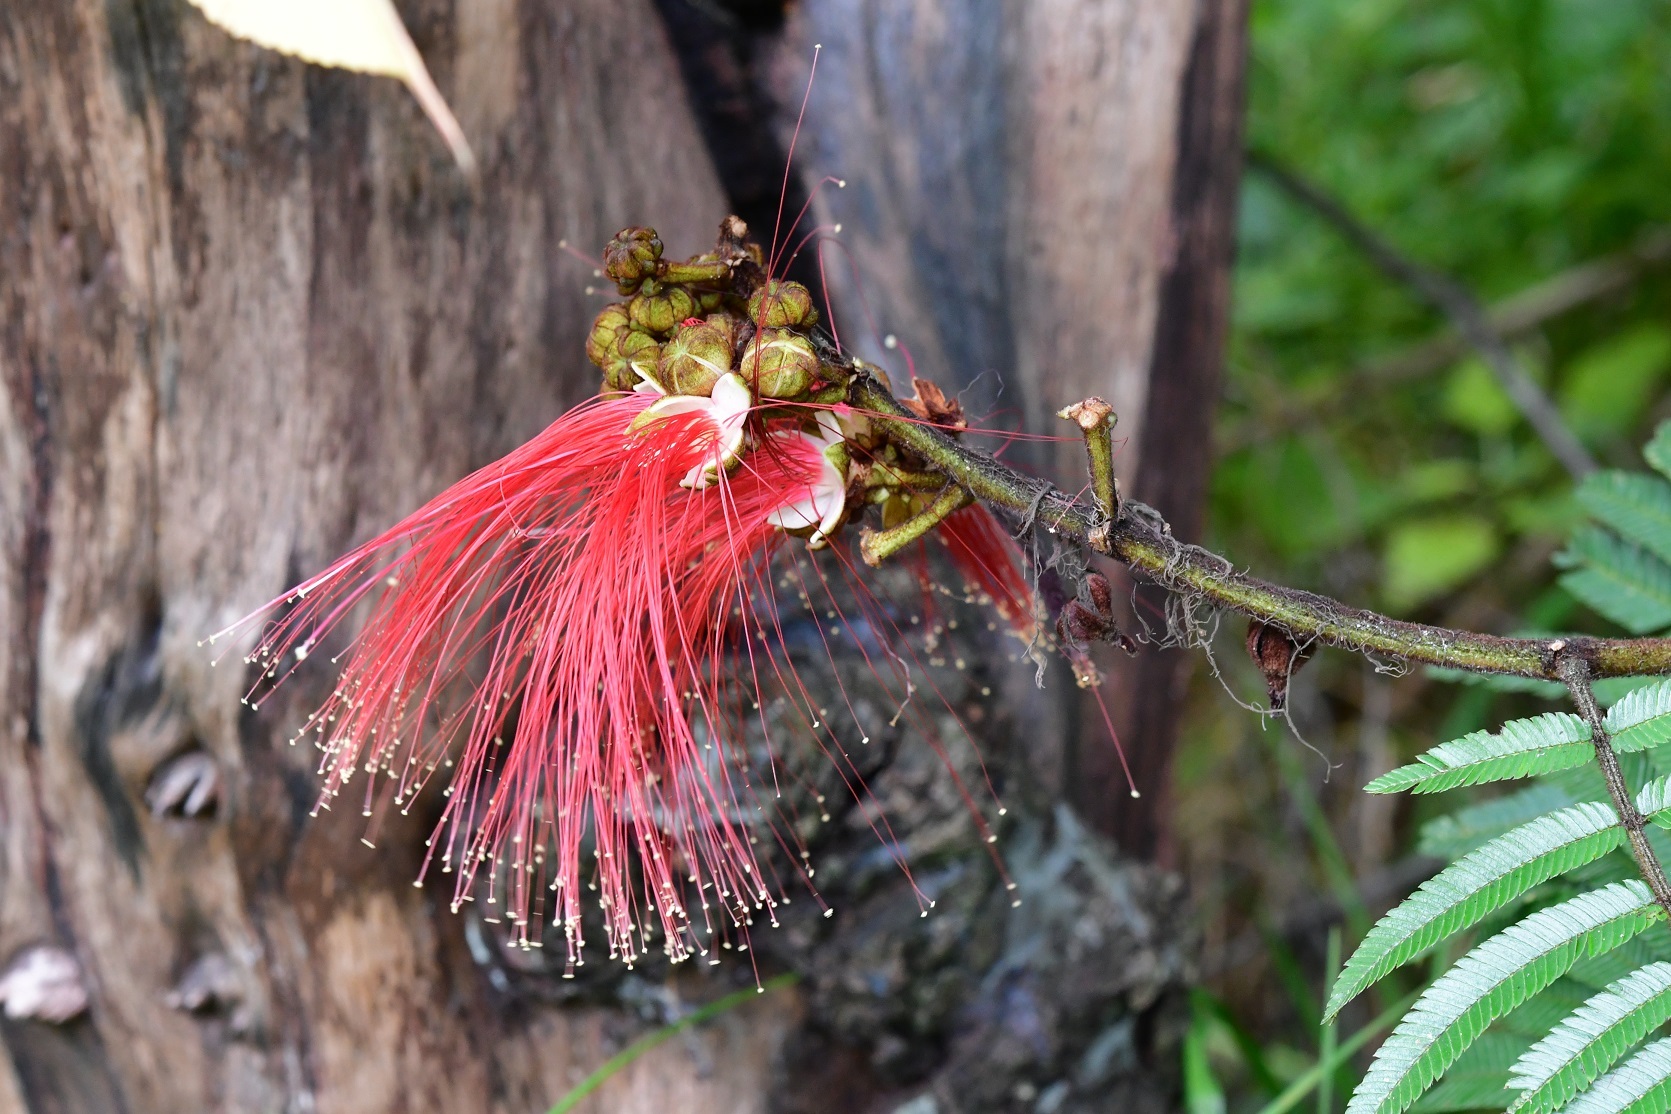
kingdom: Plantae
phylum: Tracheophyta
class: Magnoliopsida
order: Fabales
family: Fabaceae
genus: Calliandra
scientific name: Calliandra houstoniana
